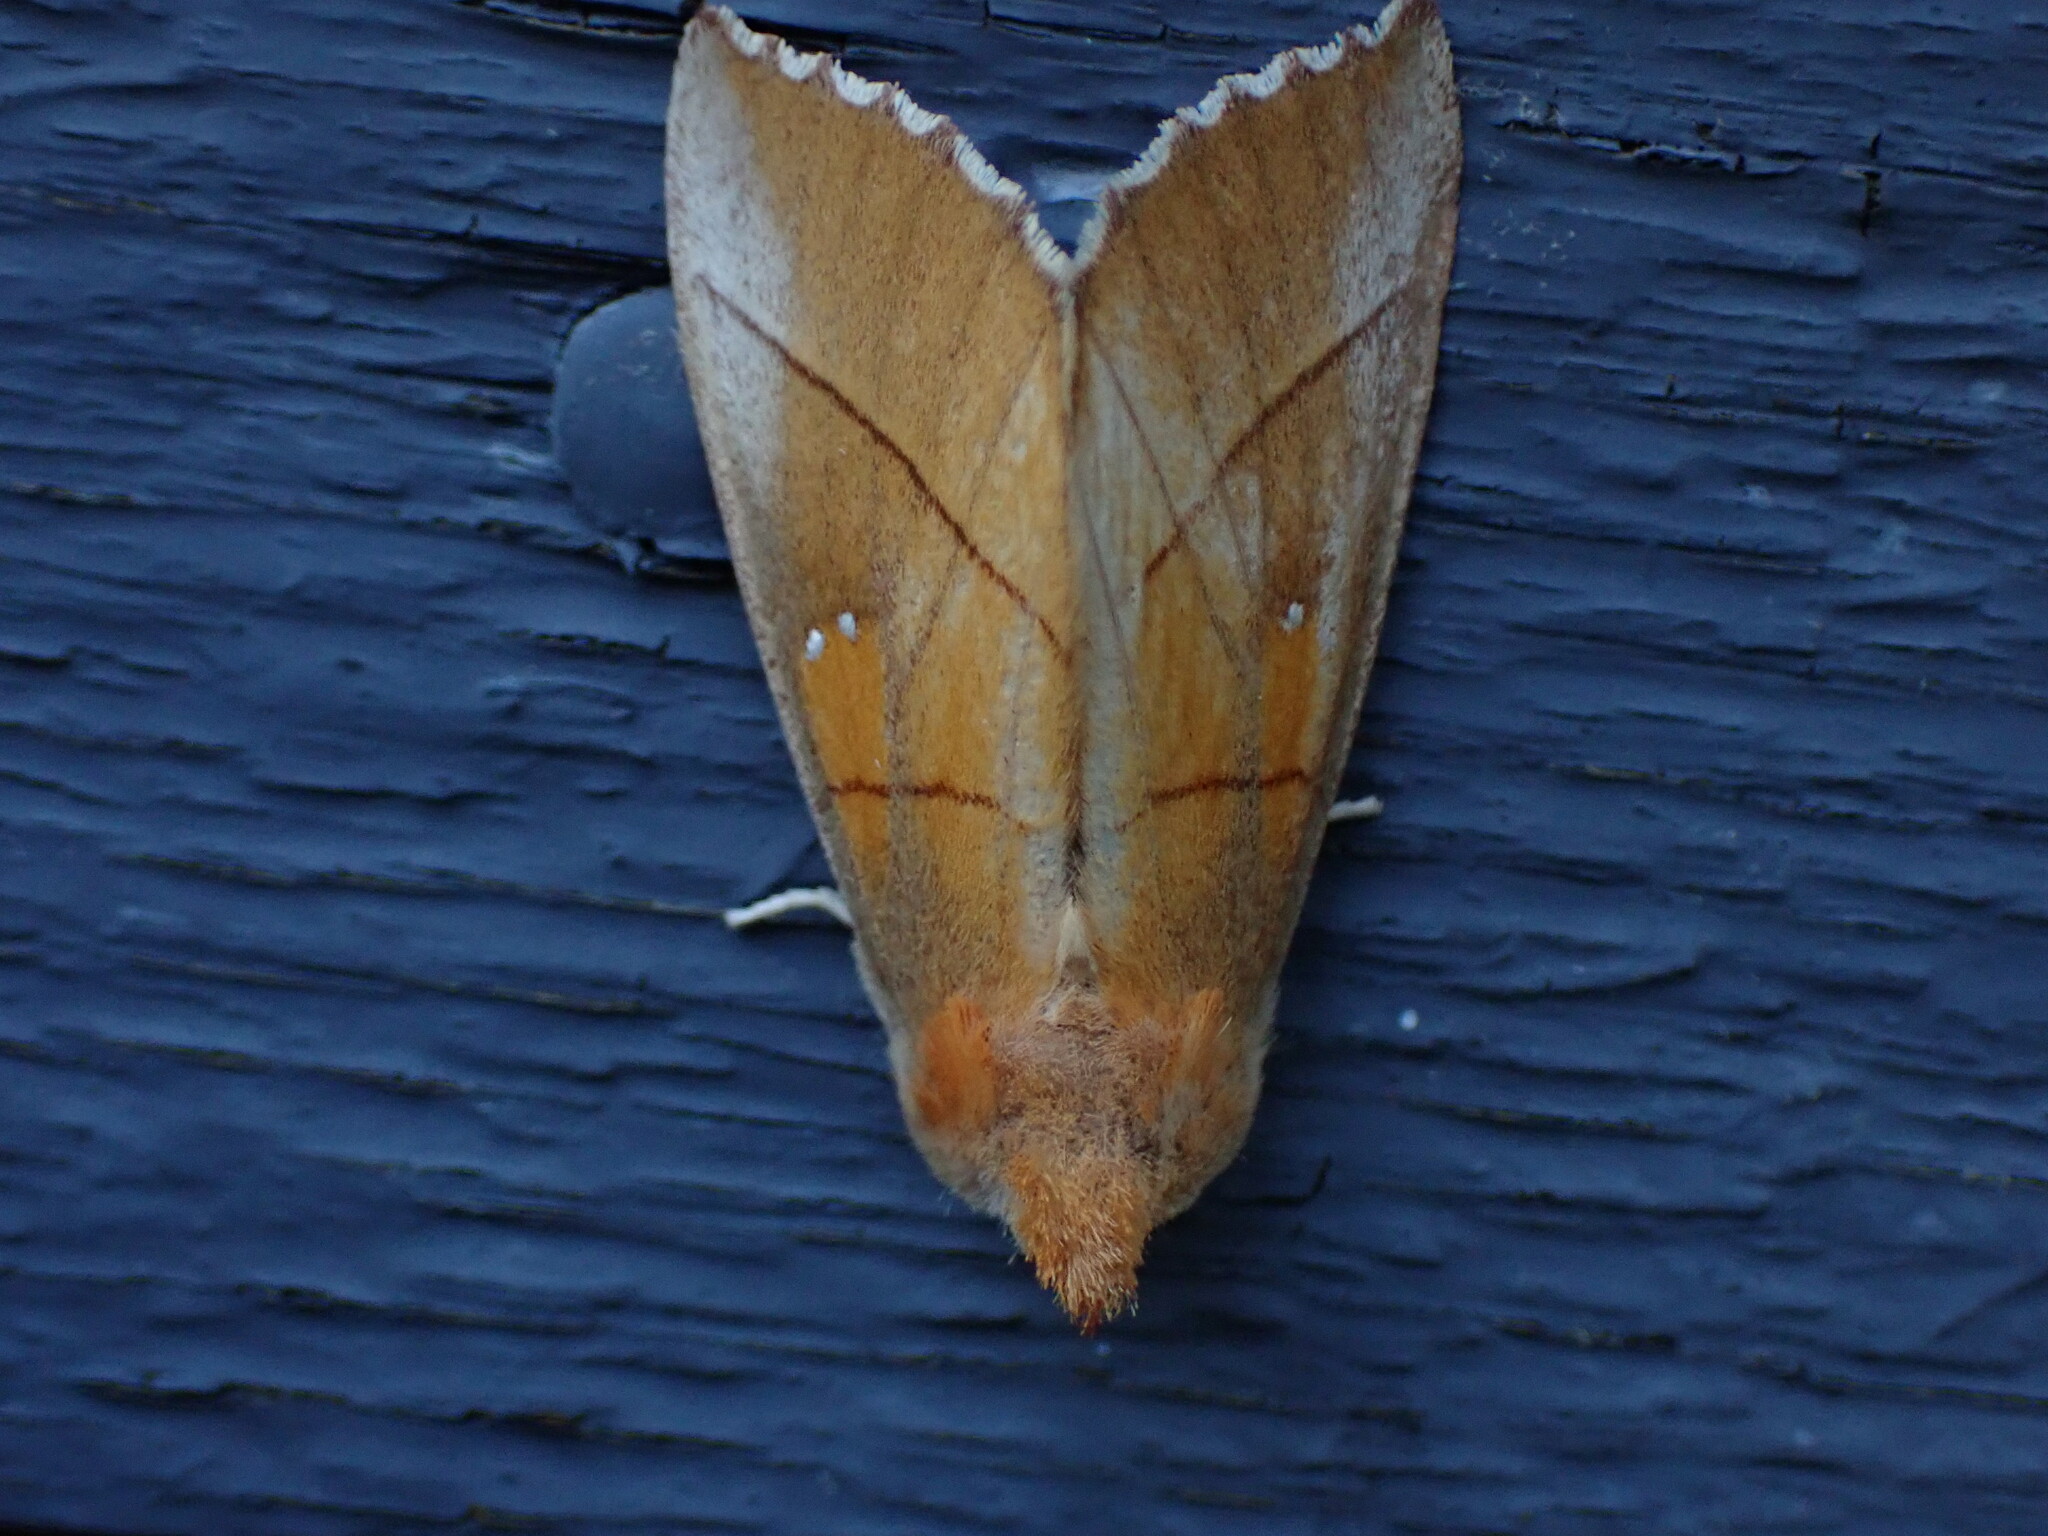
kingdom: Animalia
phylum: Arthropoda
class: Insecta
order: Lepidoptera
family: Notodontidae
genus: Nadata
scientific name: Nadata gibbosa
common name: White-dotted prominent
